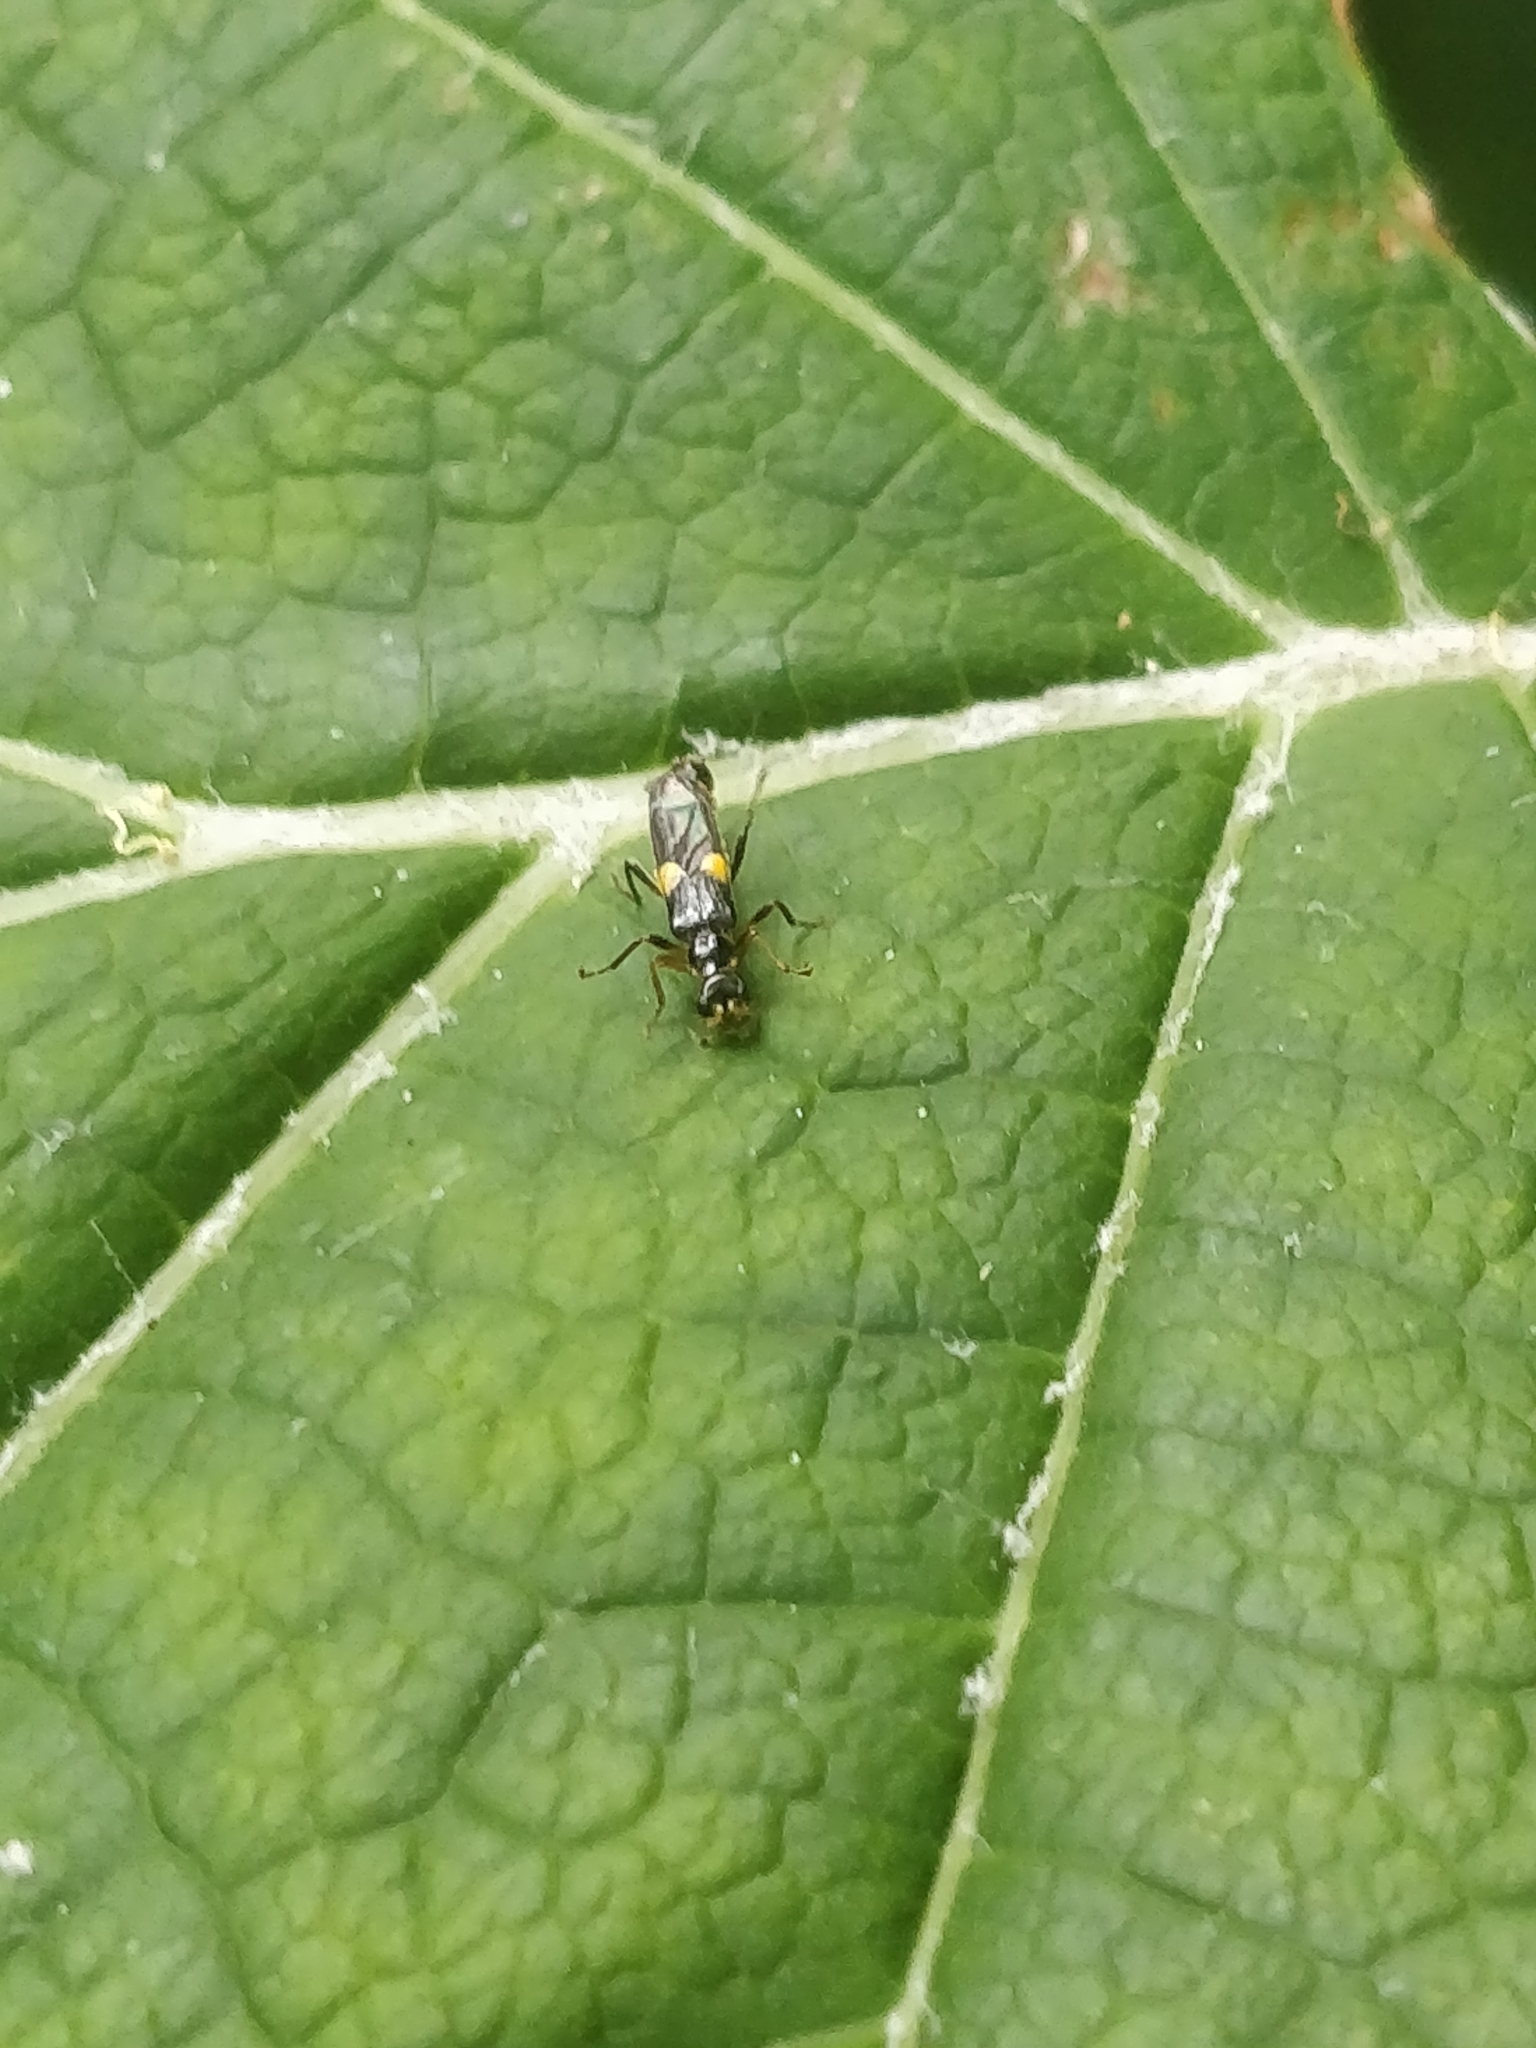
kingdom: Animalia
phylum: Arthropoda
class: Insecta
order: Coleoptera
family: Cantharidae
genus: Trypherus
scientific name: Trypherus
